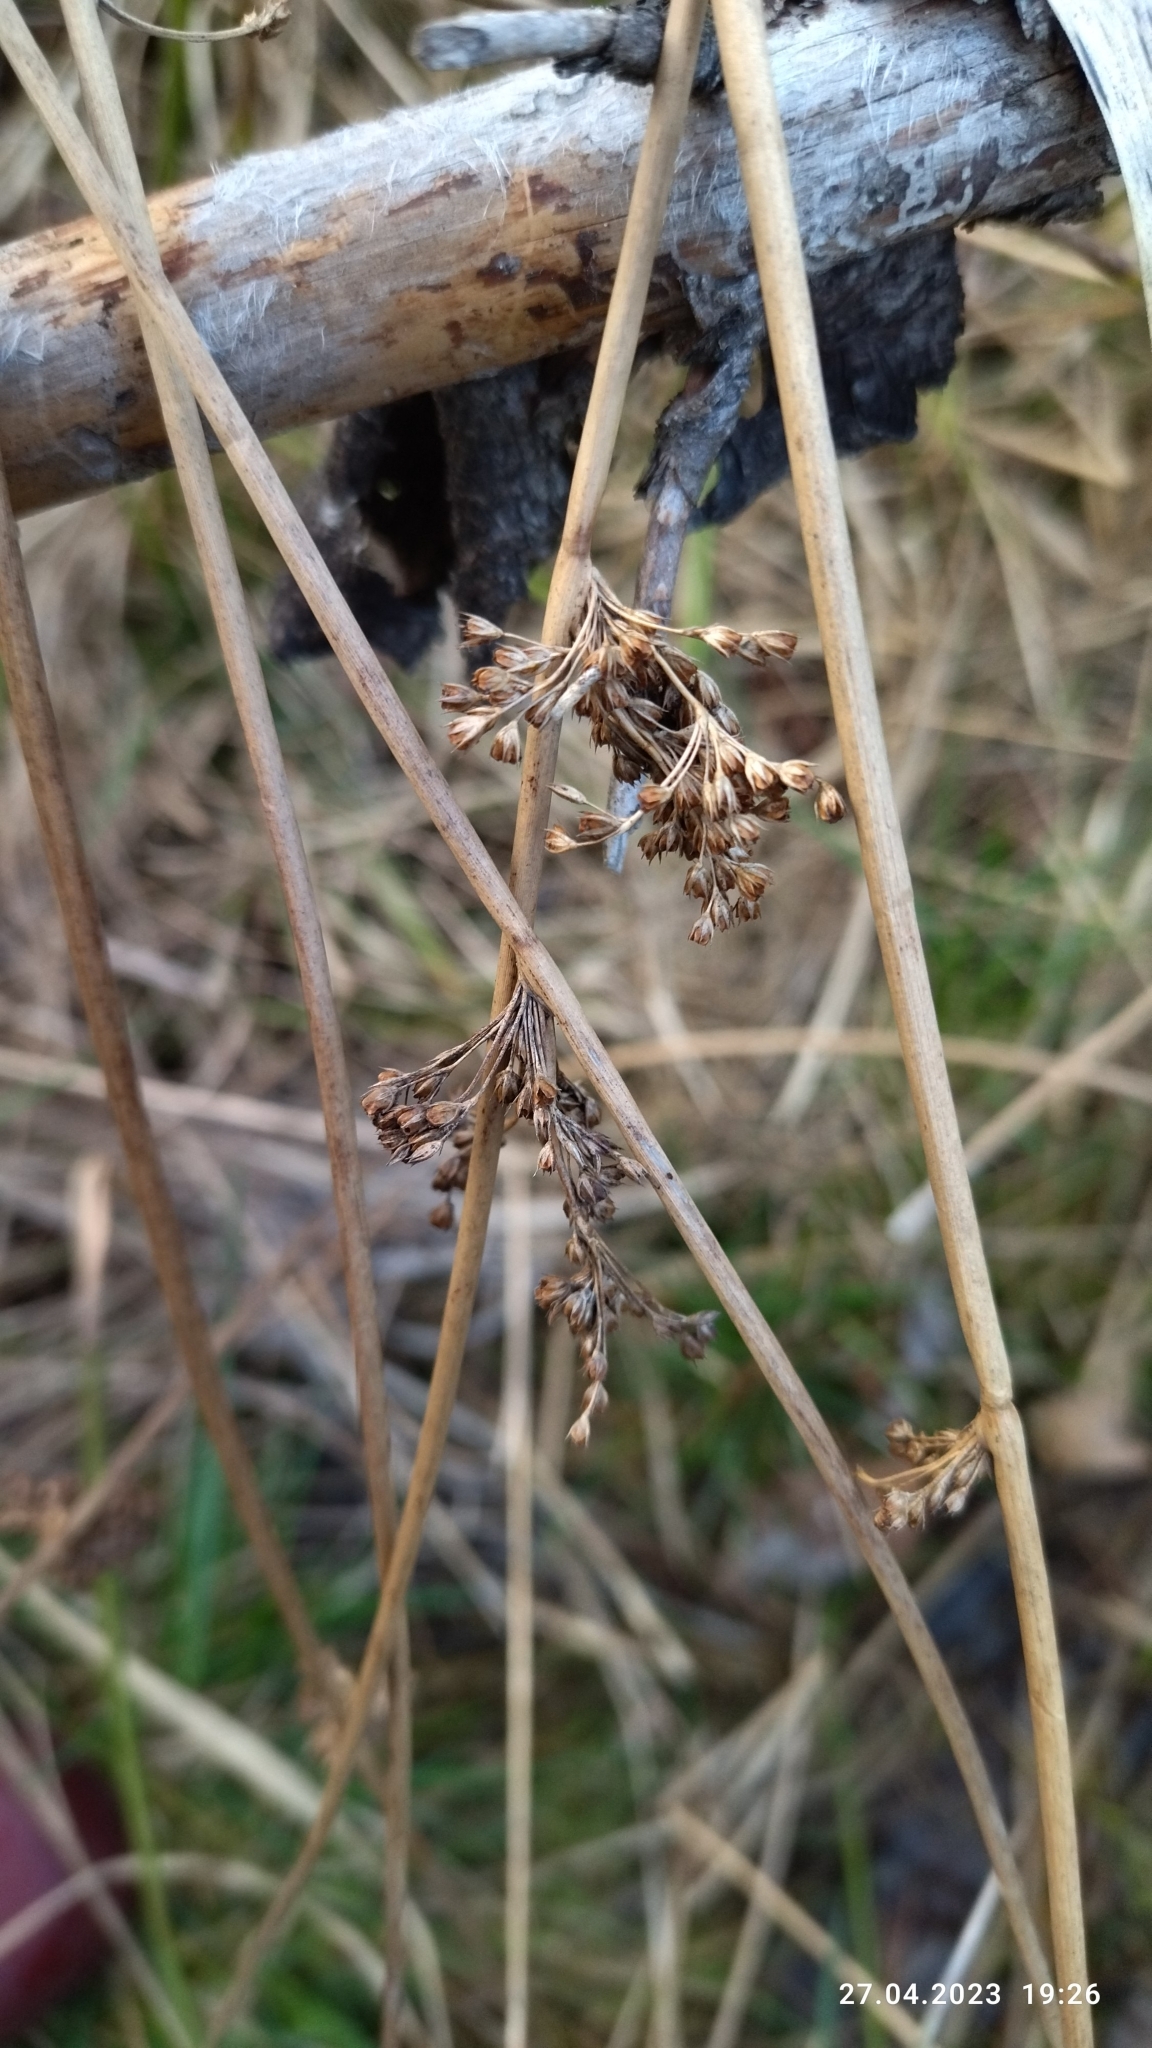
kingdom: Plantae
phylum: Tracheophyta
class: Liliopsida
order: Poales
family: Juncaceae
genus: Juncus
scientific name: Juncus effusus
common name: Soft rush
